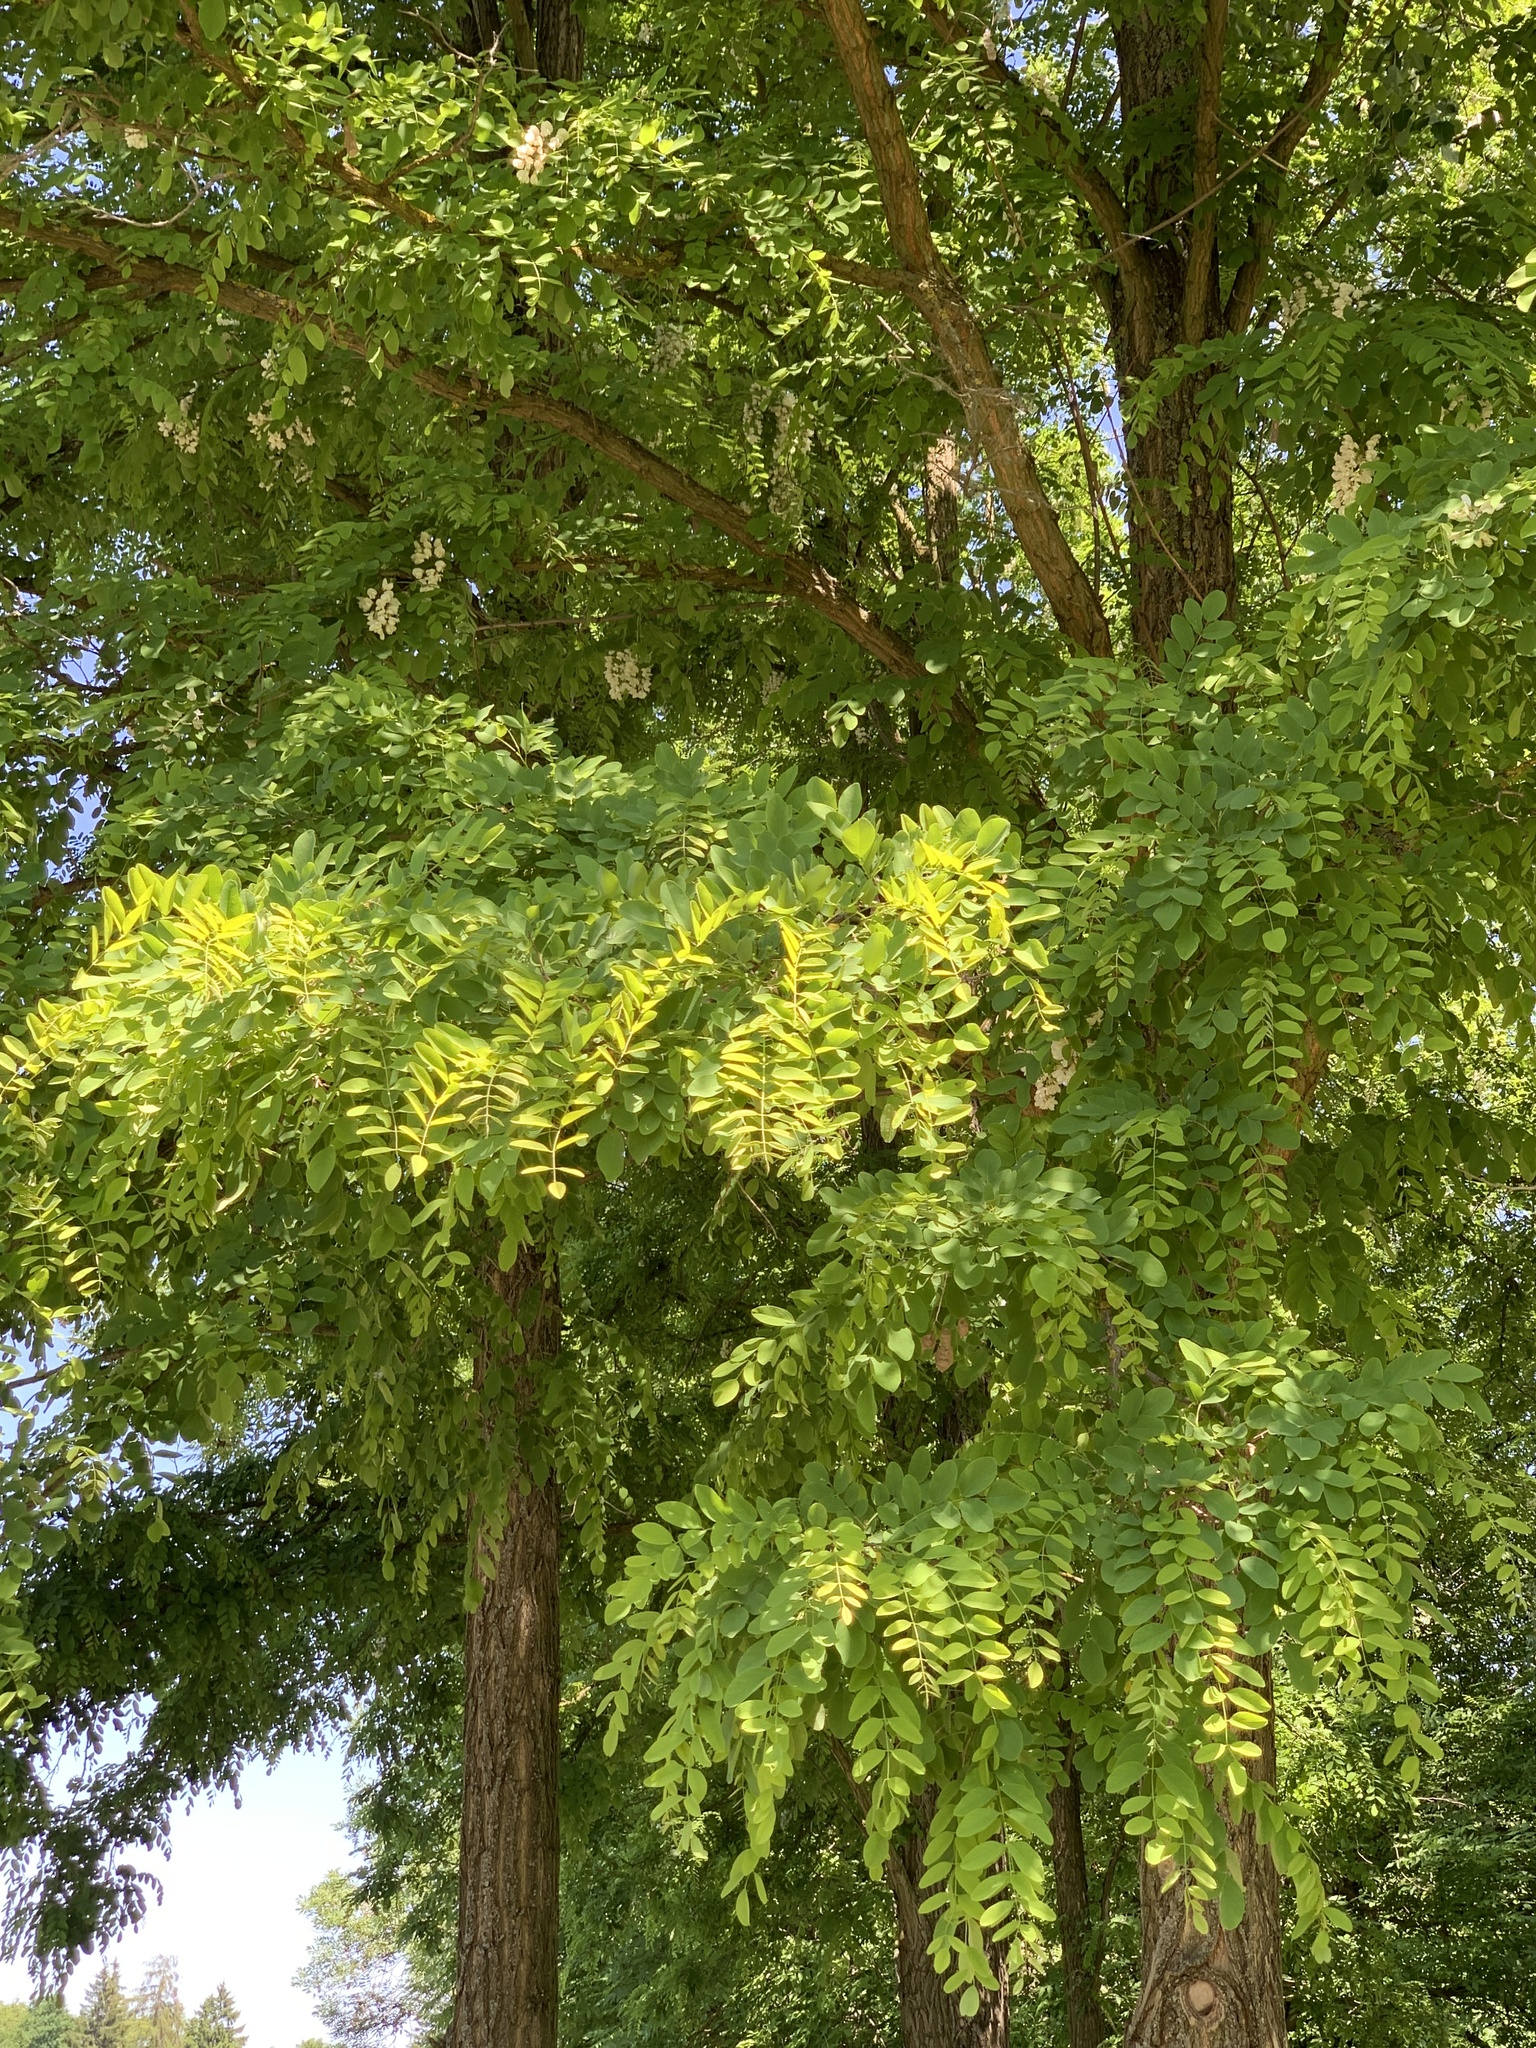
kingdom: Plantae
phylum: Tracheophyta
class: Magnoliopsida
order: Fabales
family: Fabaceae
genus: Robinia
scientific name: Robinia pseudoacacia
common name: Black locust
